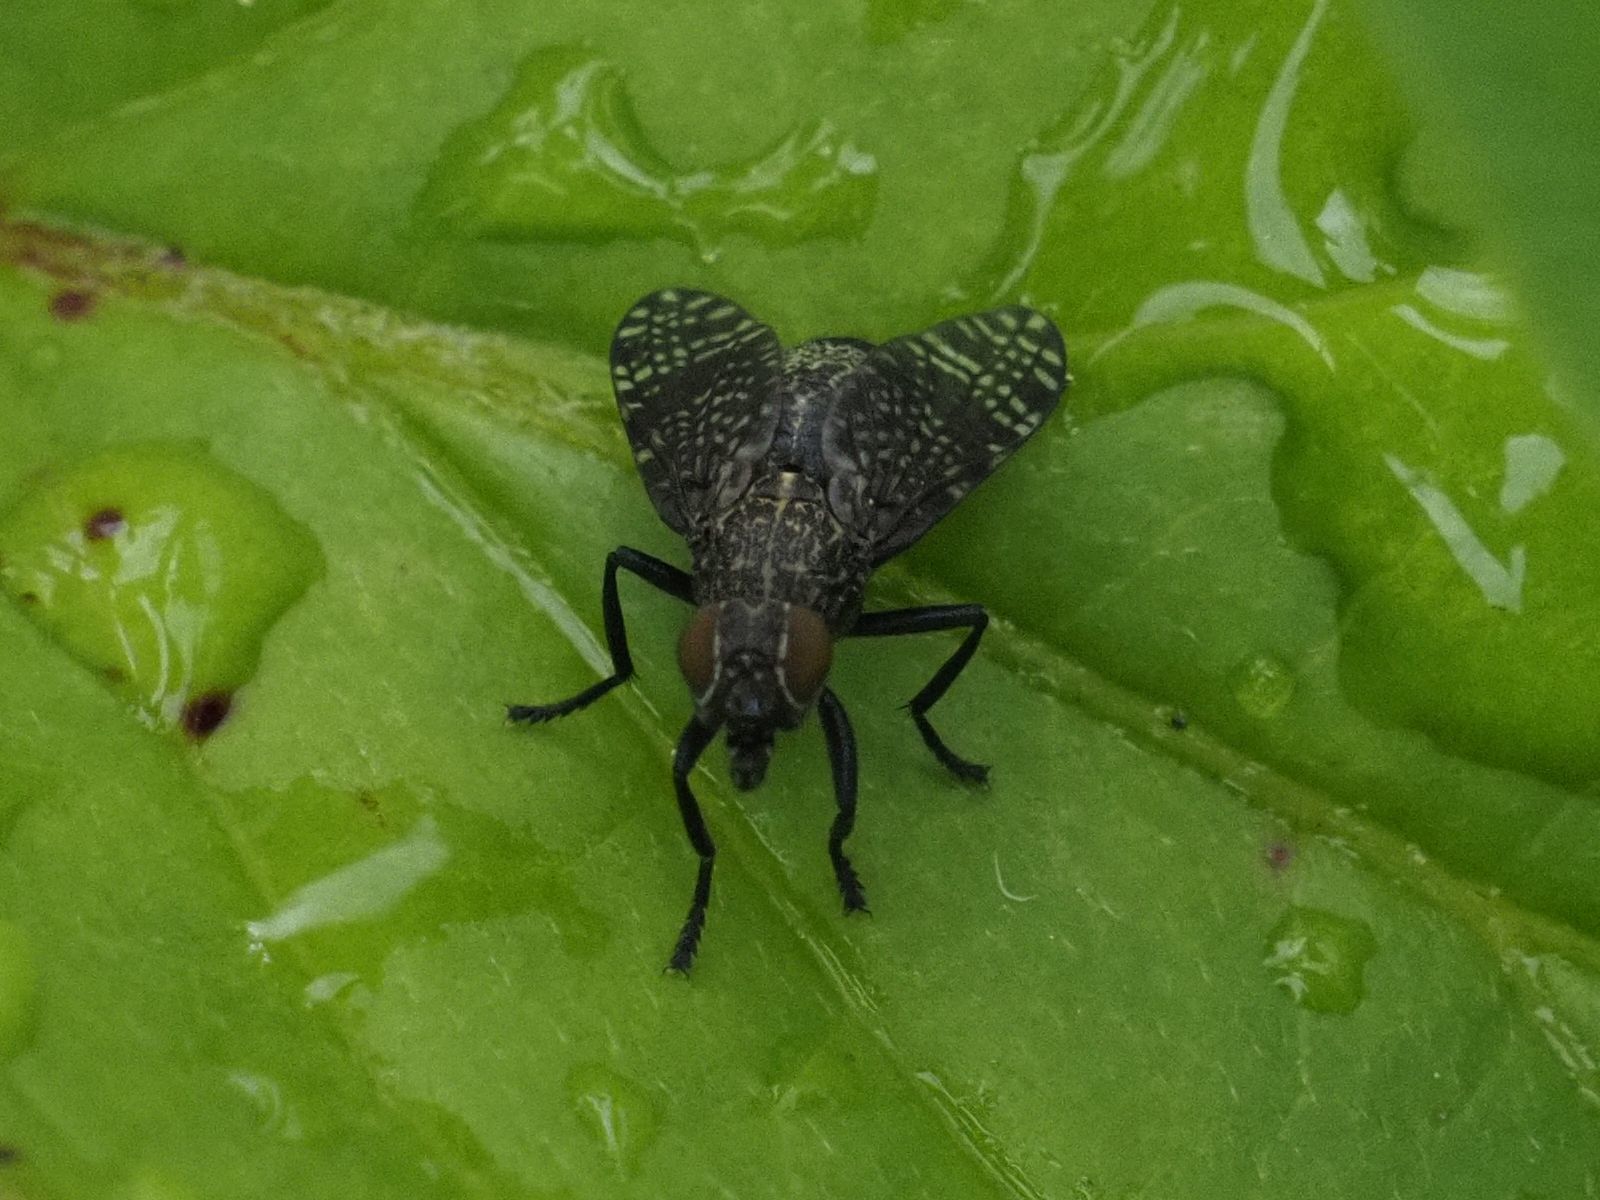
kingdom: Animalia
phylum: Arthropoda
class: Insecta
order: Diptera
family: Platystomatidae
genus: Platystoma
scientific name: Platystoma seminationis
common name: Fly
